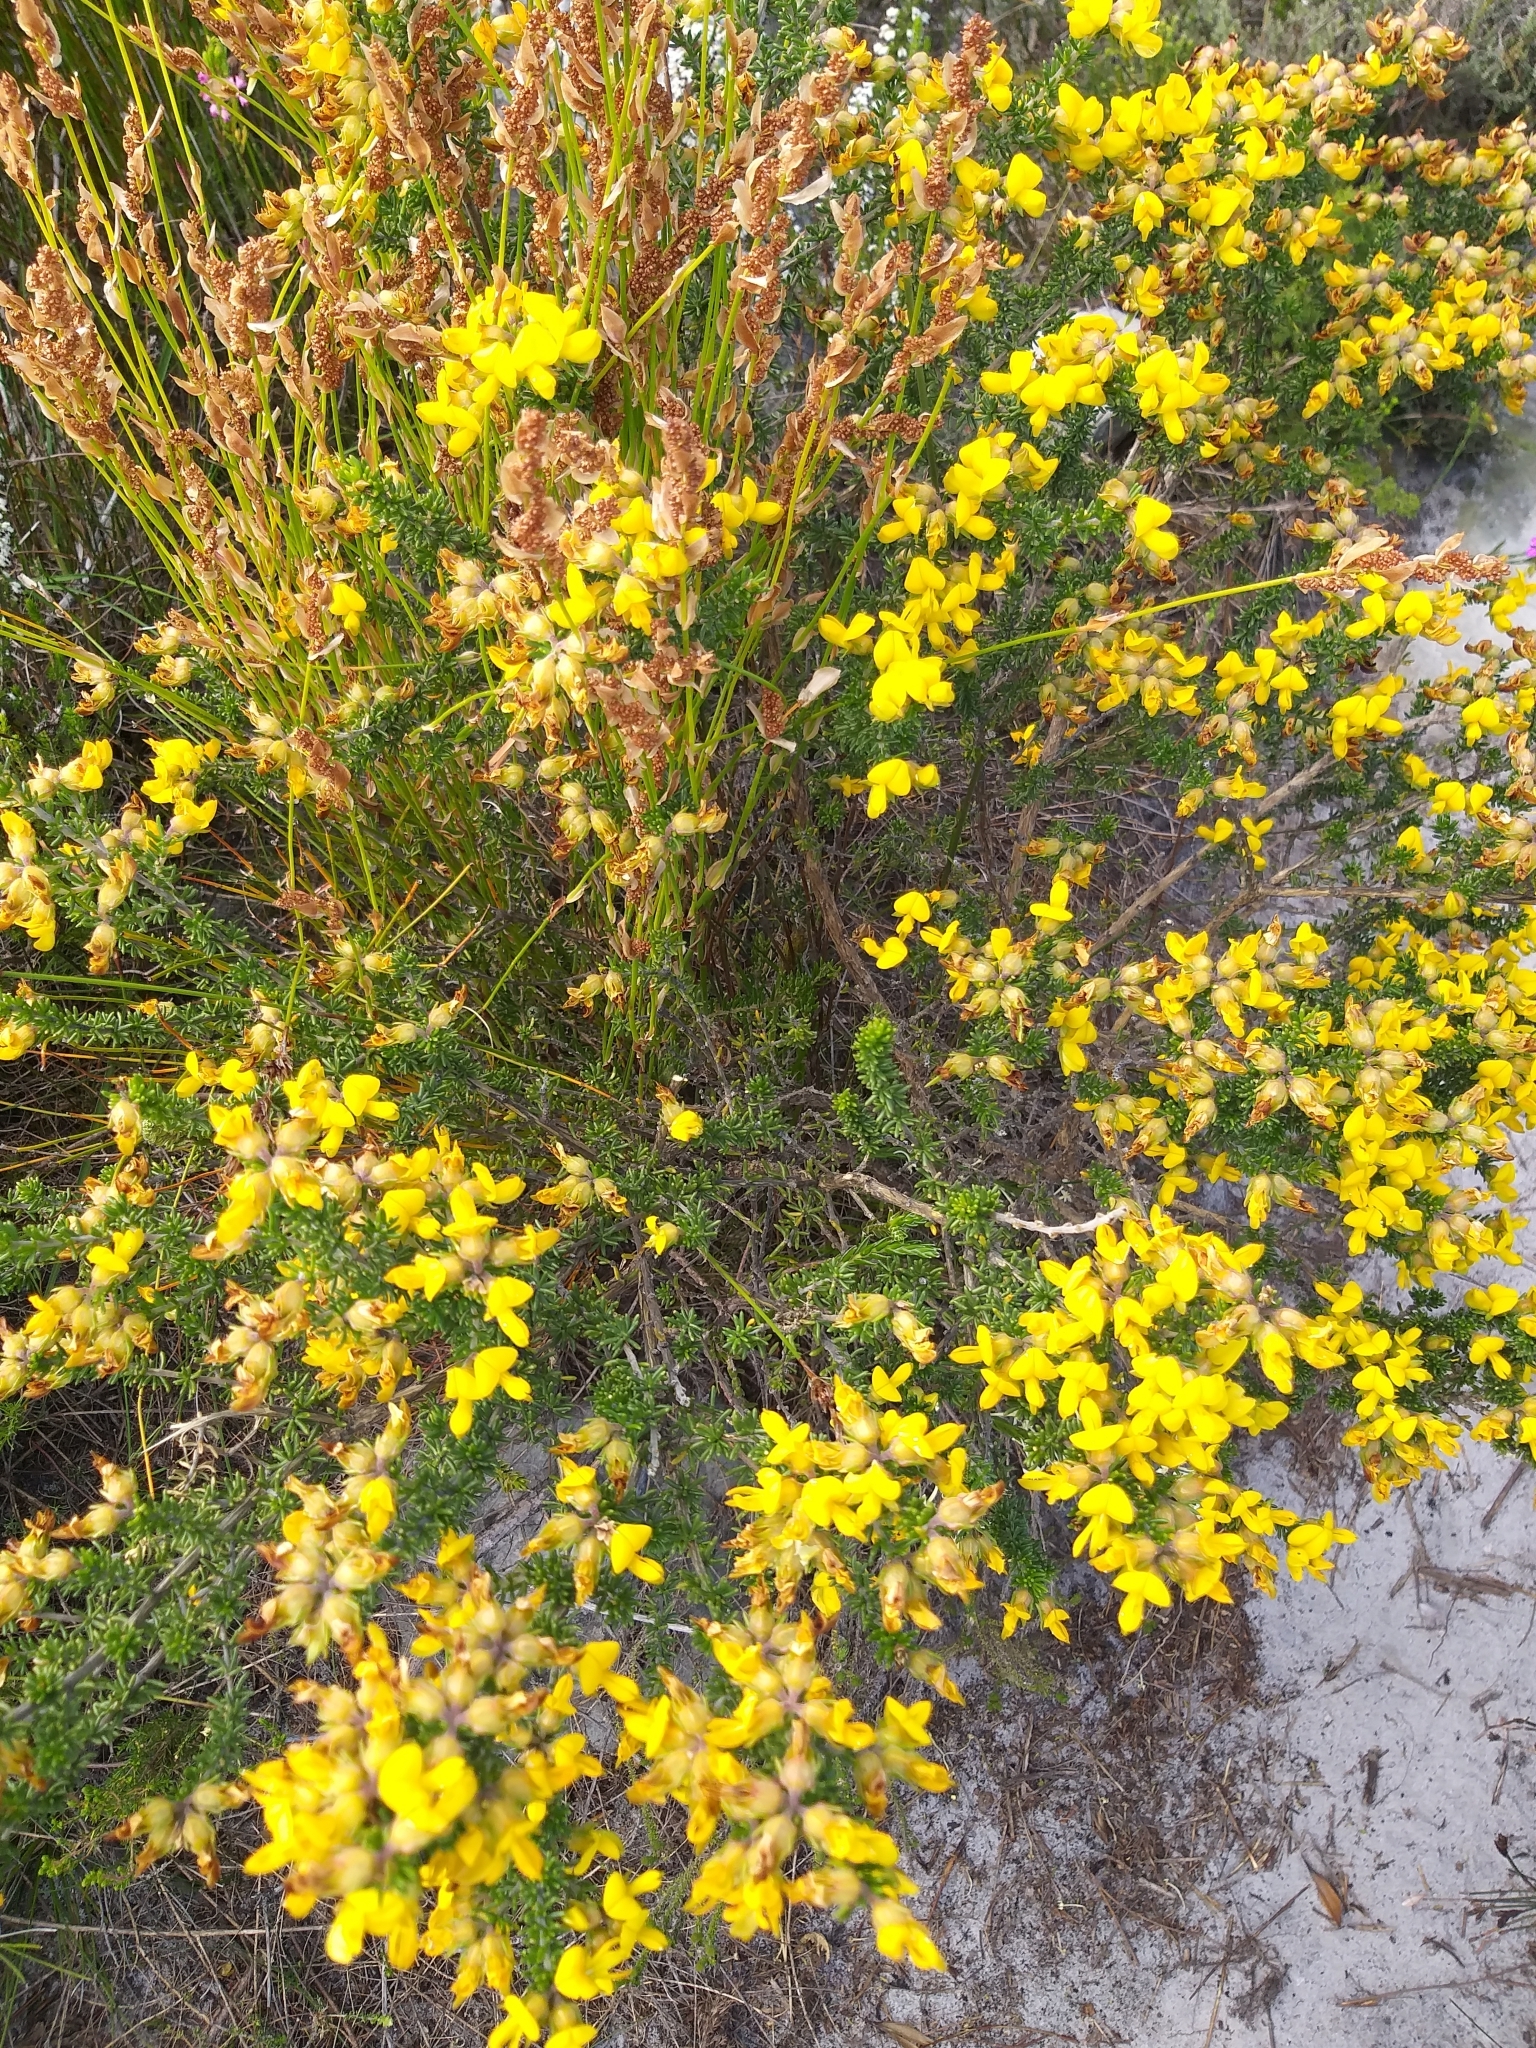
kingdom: Plantae
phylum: Tracheophyta
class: Magnoliopsida
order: Fabales
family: Fabaceae
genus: Aspalathus
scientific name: Aspalathus capensis
